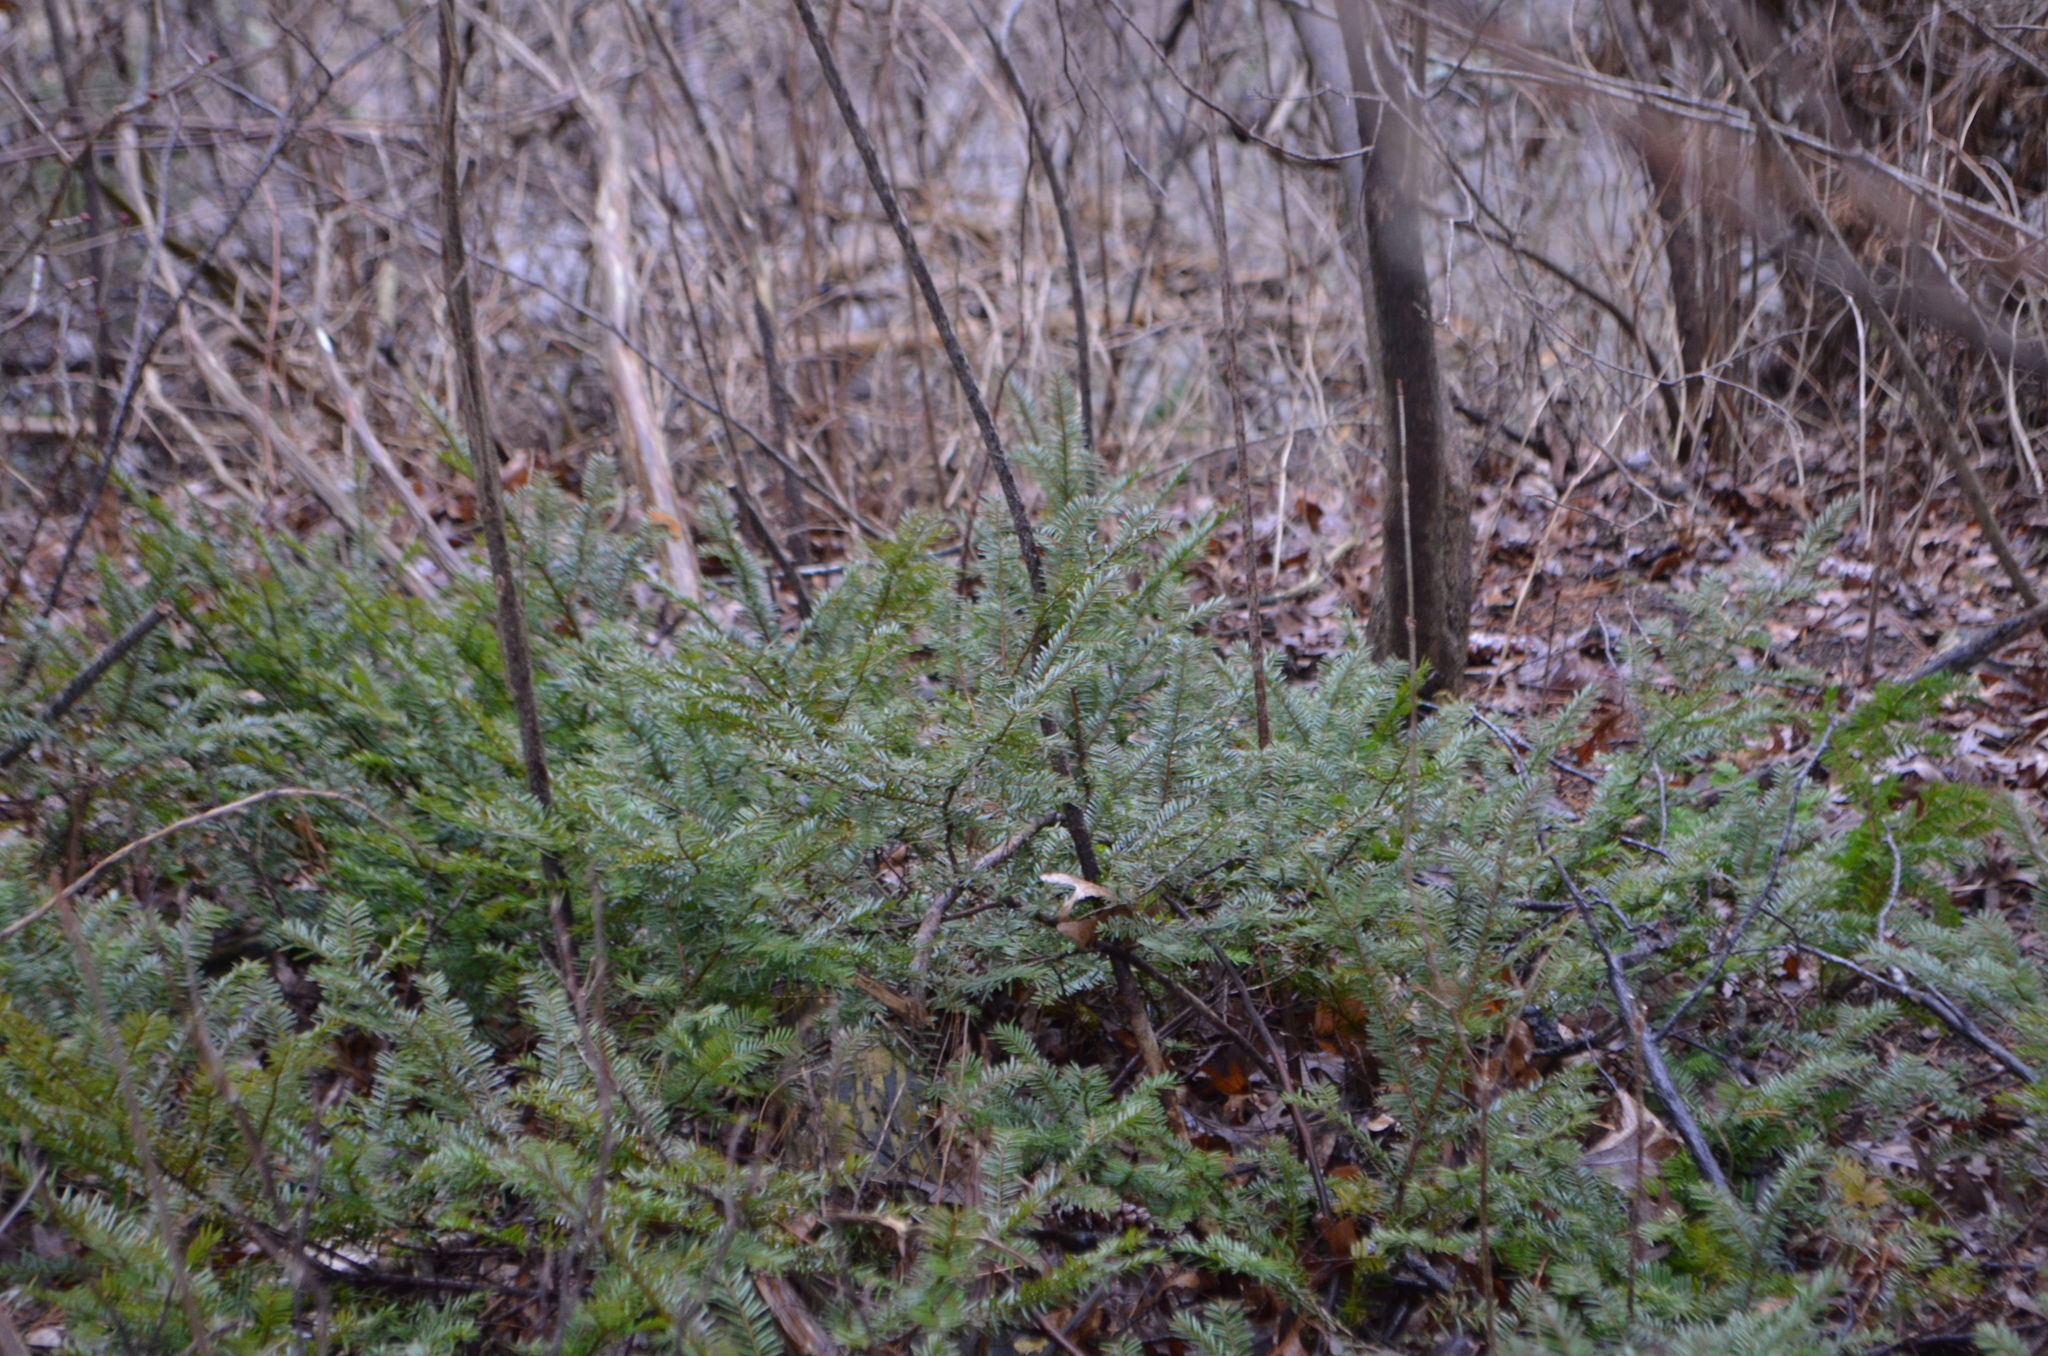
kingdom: Plantae
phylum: Tracheophyta
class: Pinopsida
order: Pinales
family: Taxaceae
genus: Taxus
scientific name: Taxus canadensis
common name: American yew
